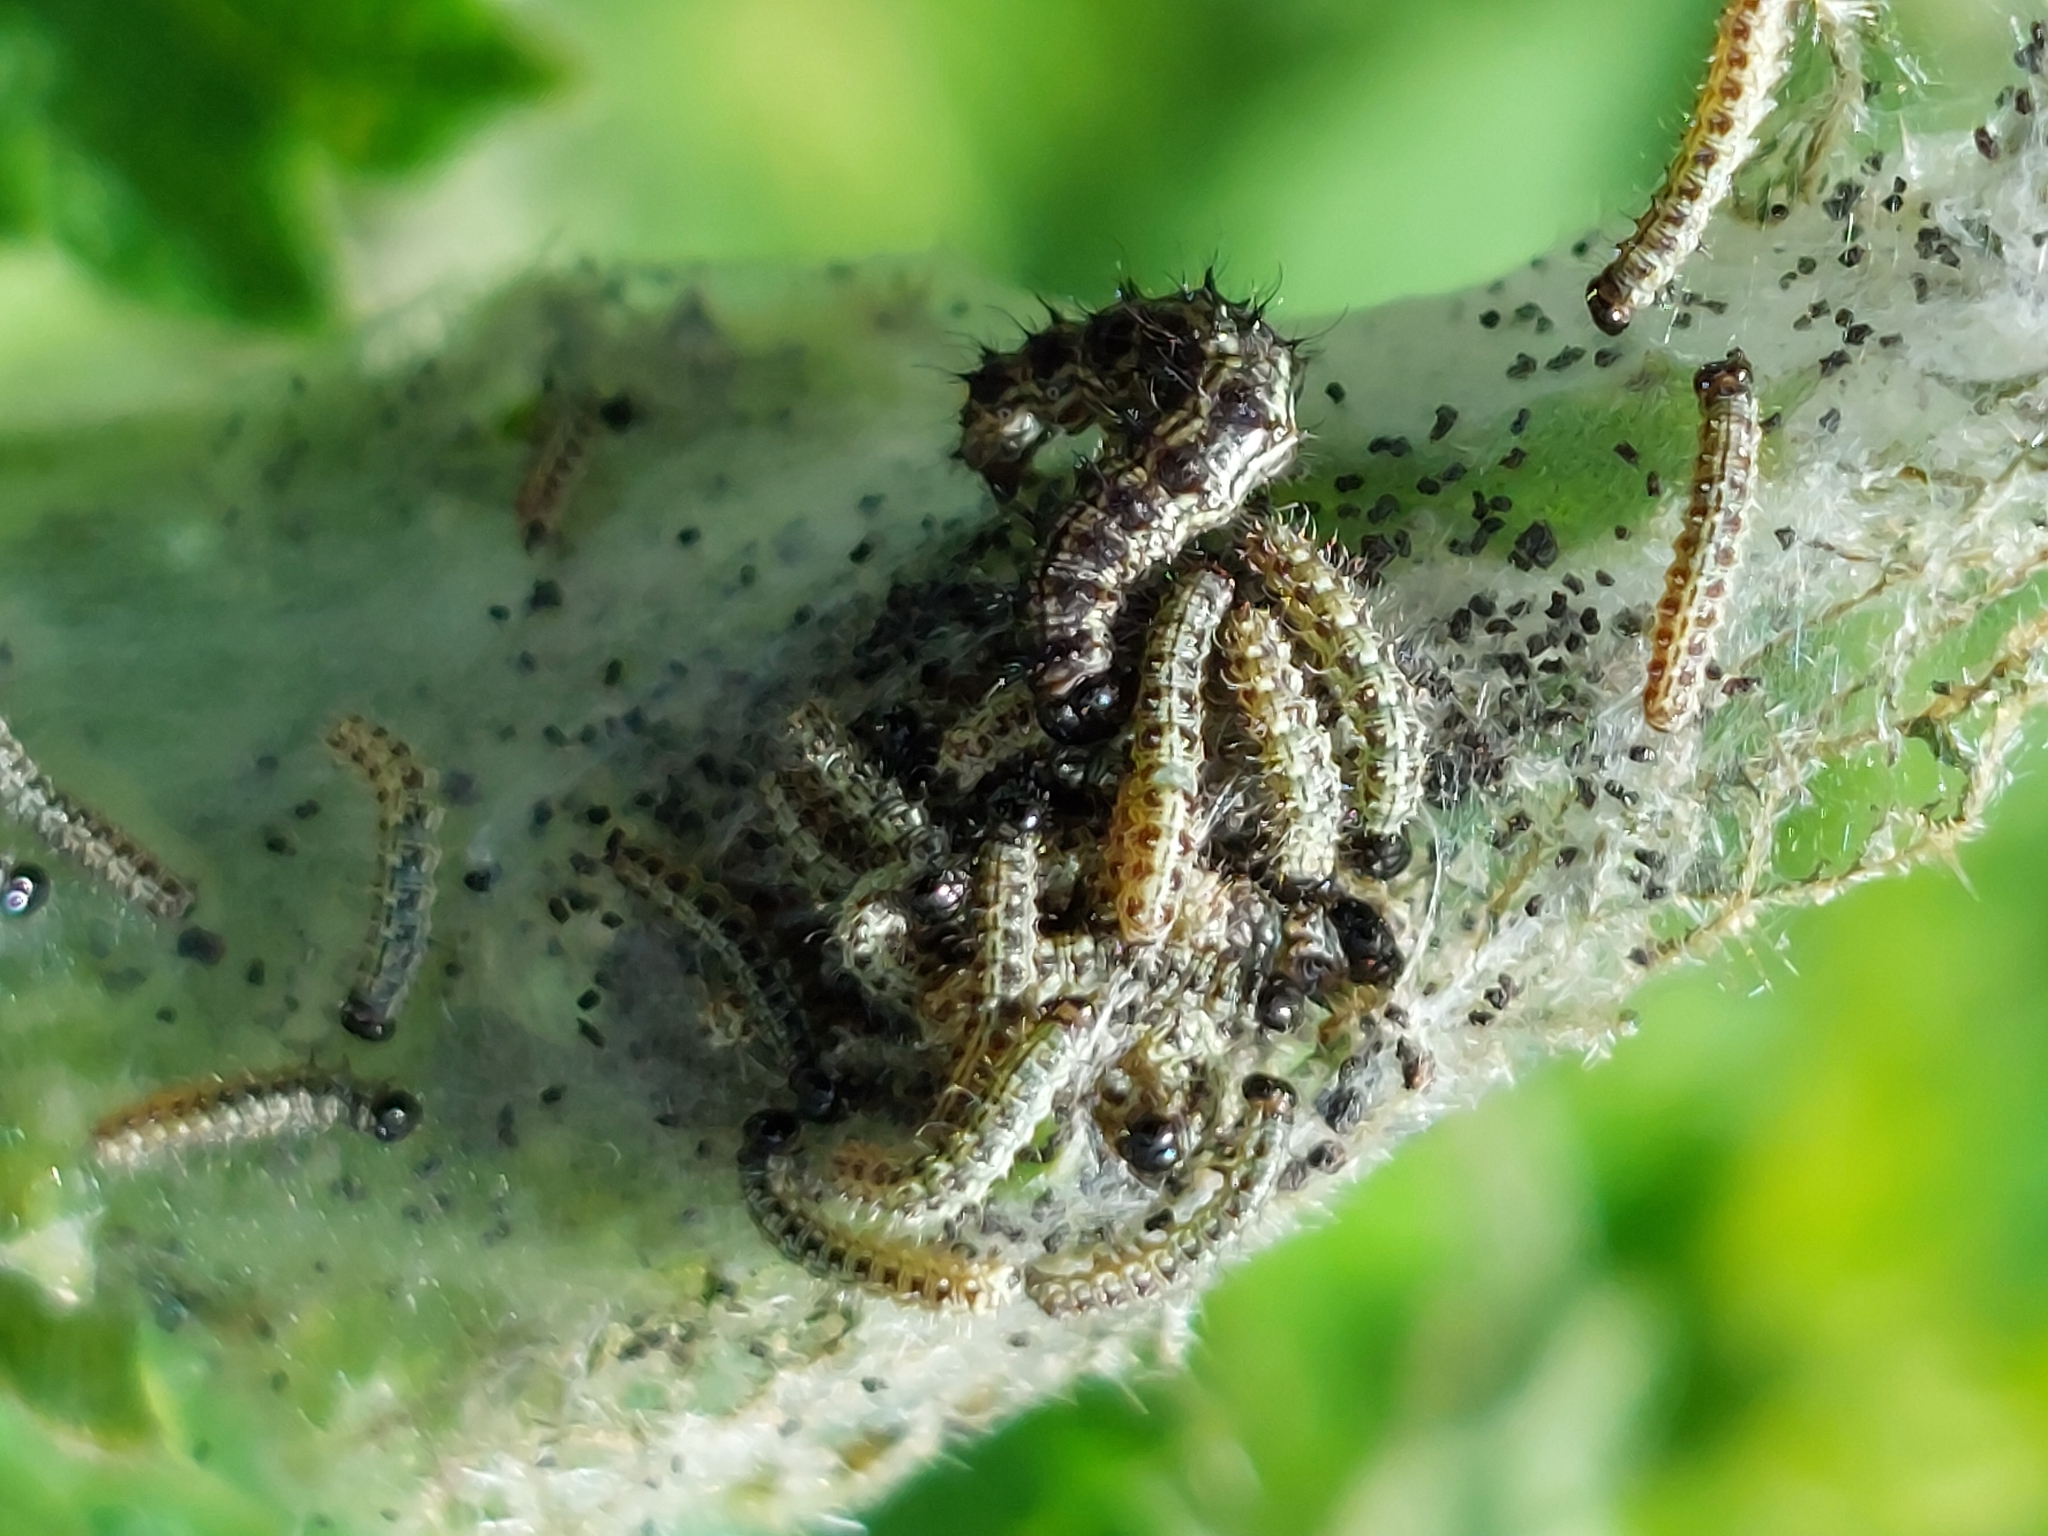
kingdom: Animalia
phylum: Arthropoda
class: Insecta
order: Lepidoptera
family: Nymphalidae
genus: Aglais
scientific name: Aglais urticae
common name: Small tortoiseshell
